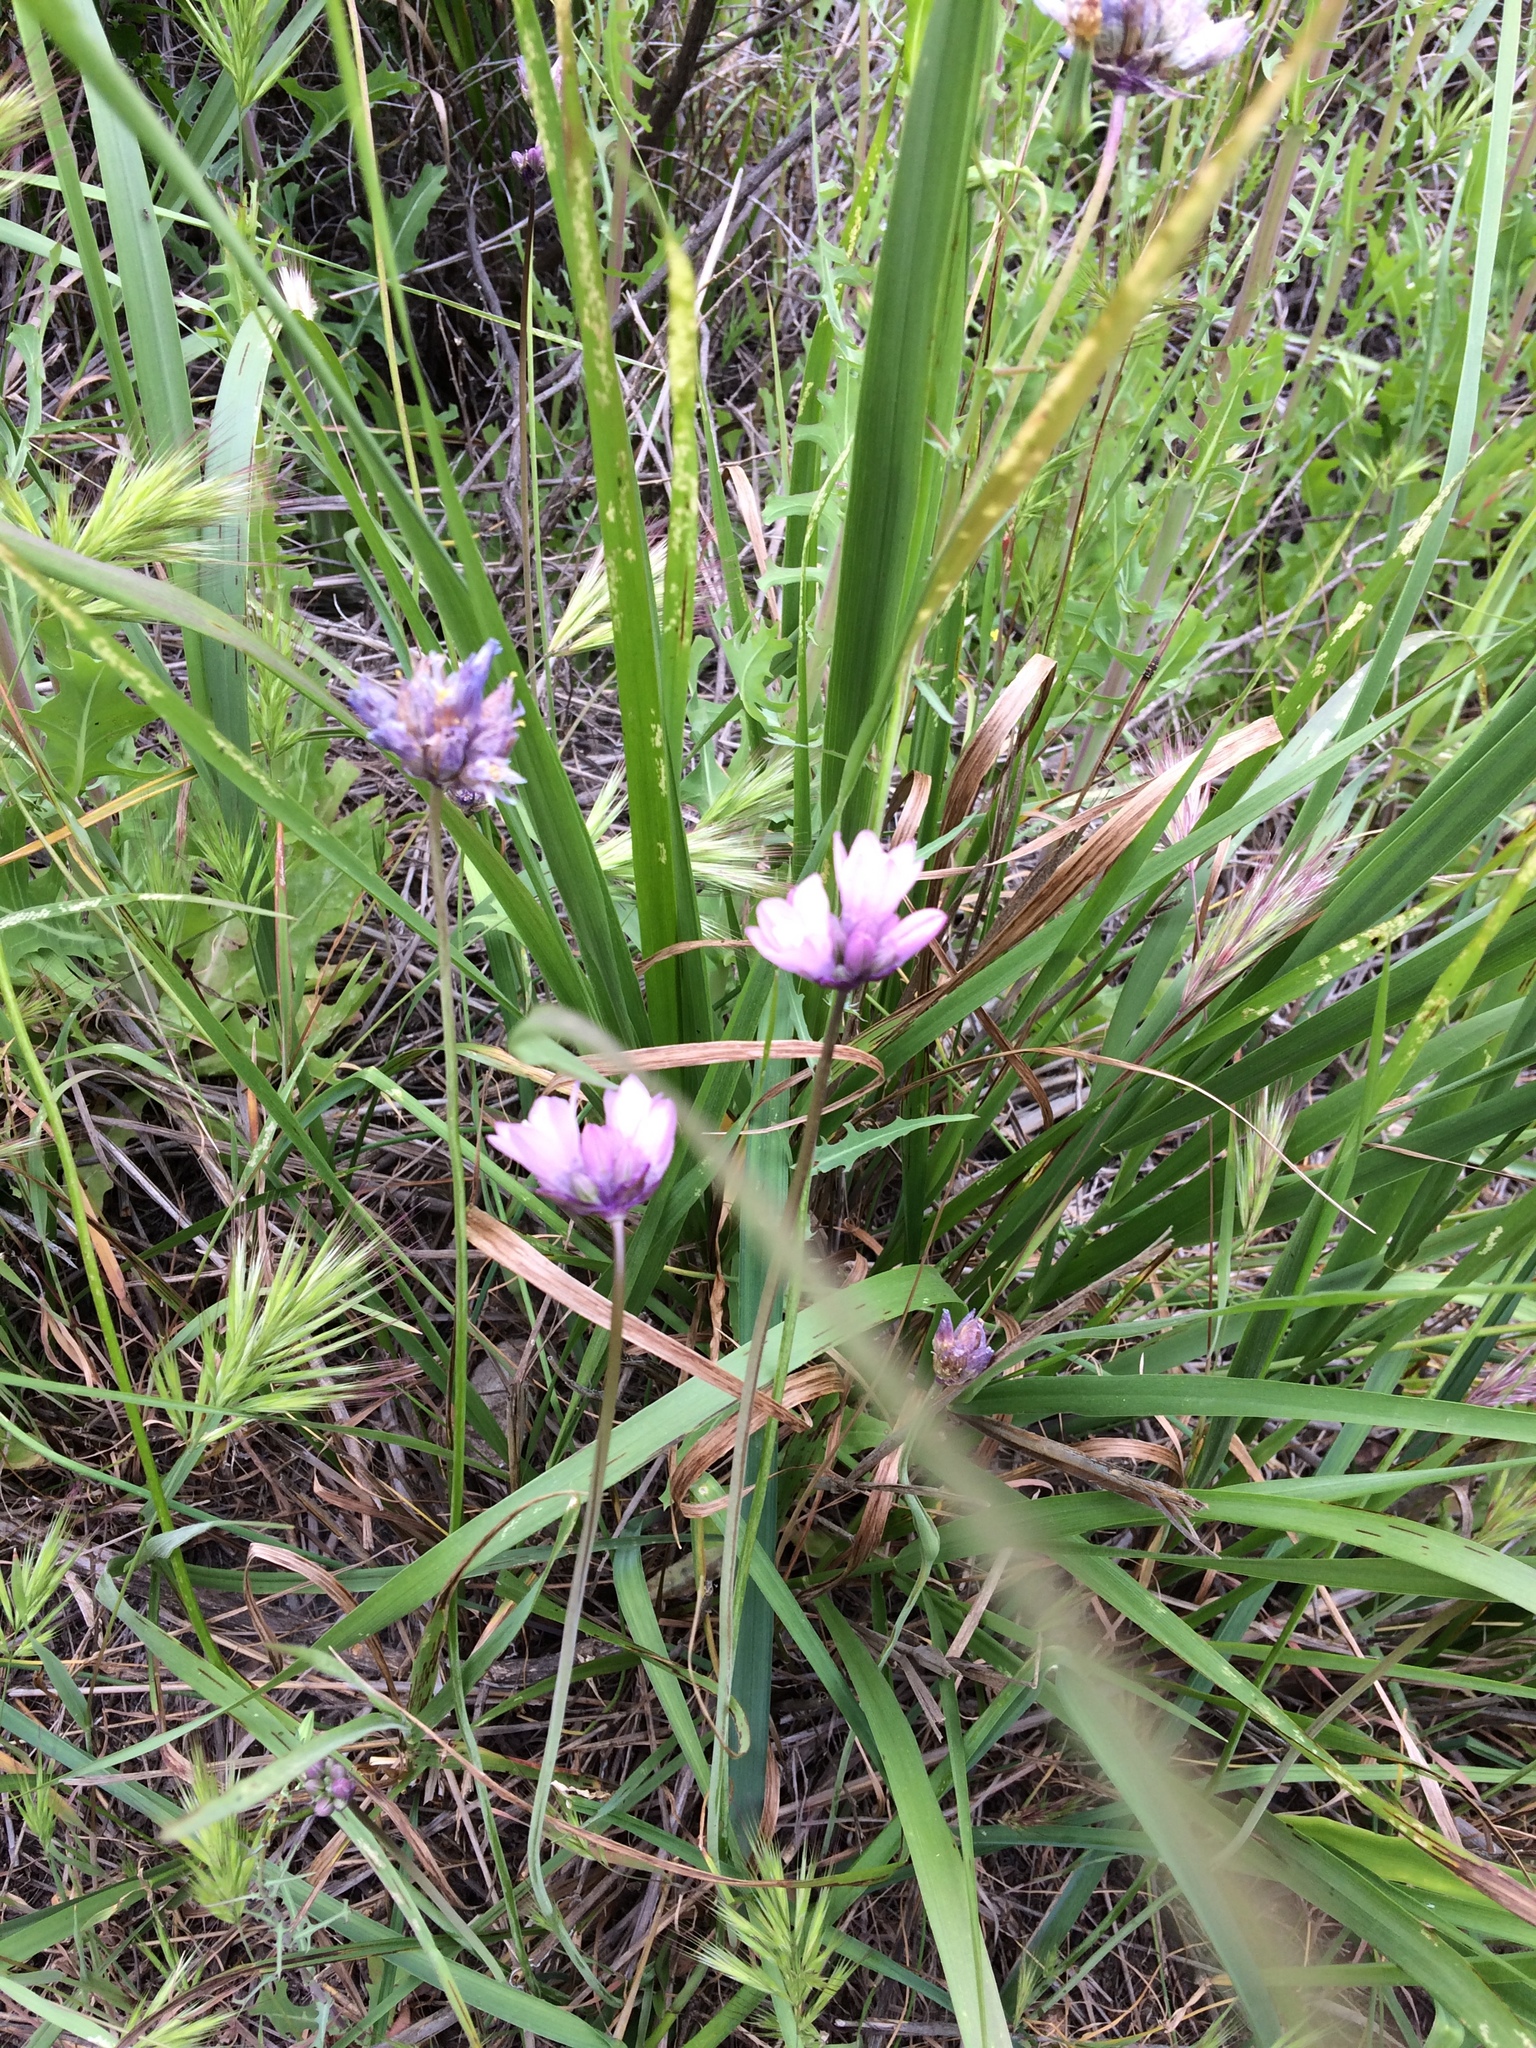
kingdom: Plantae
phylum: Tracheophyta
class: Liliopsida
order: Asparagales
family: Asparagaceae
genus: Dipterostemon
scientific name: Dipterostemon capitatus
